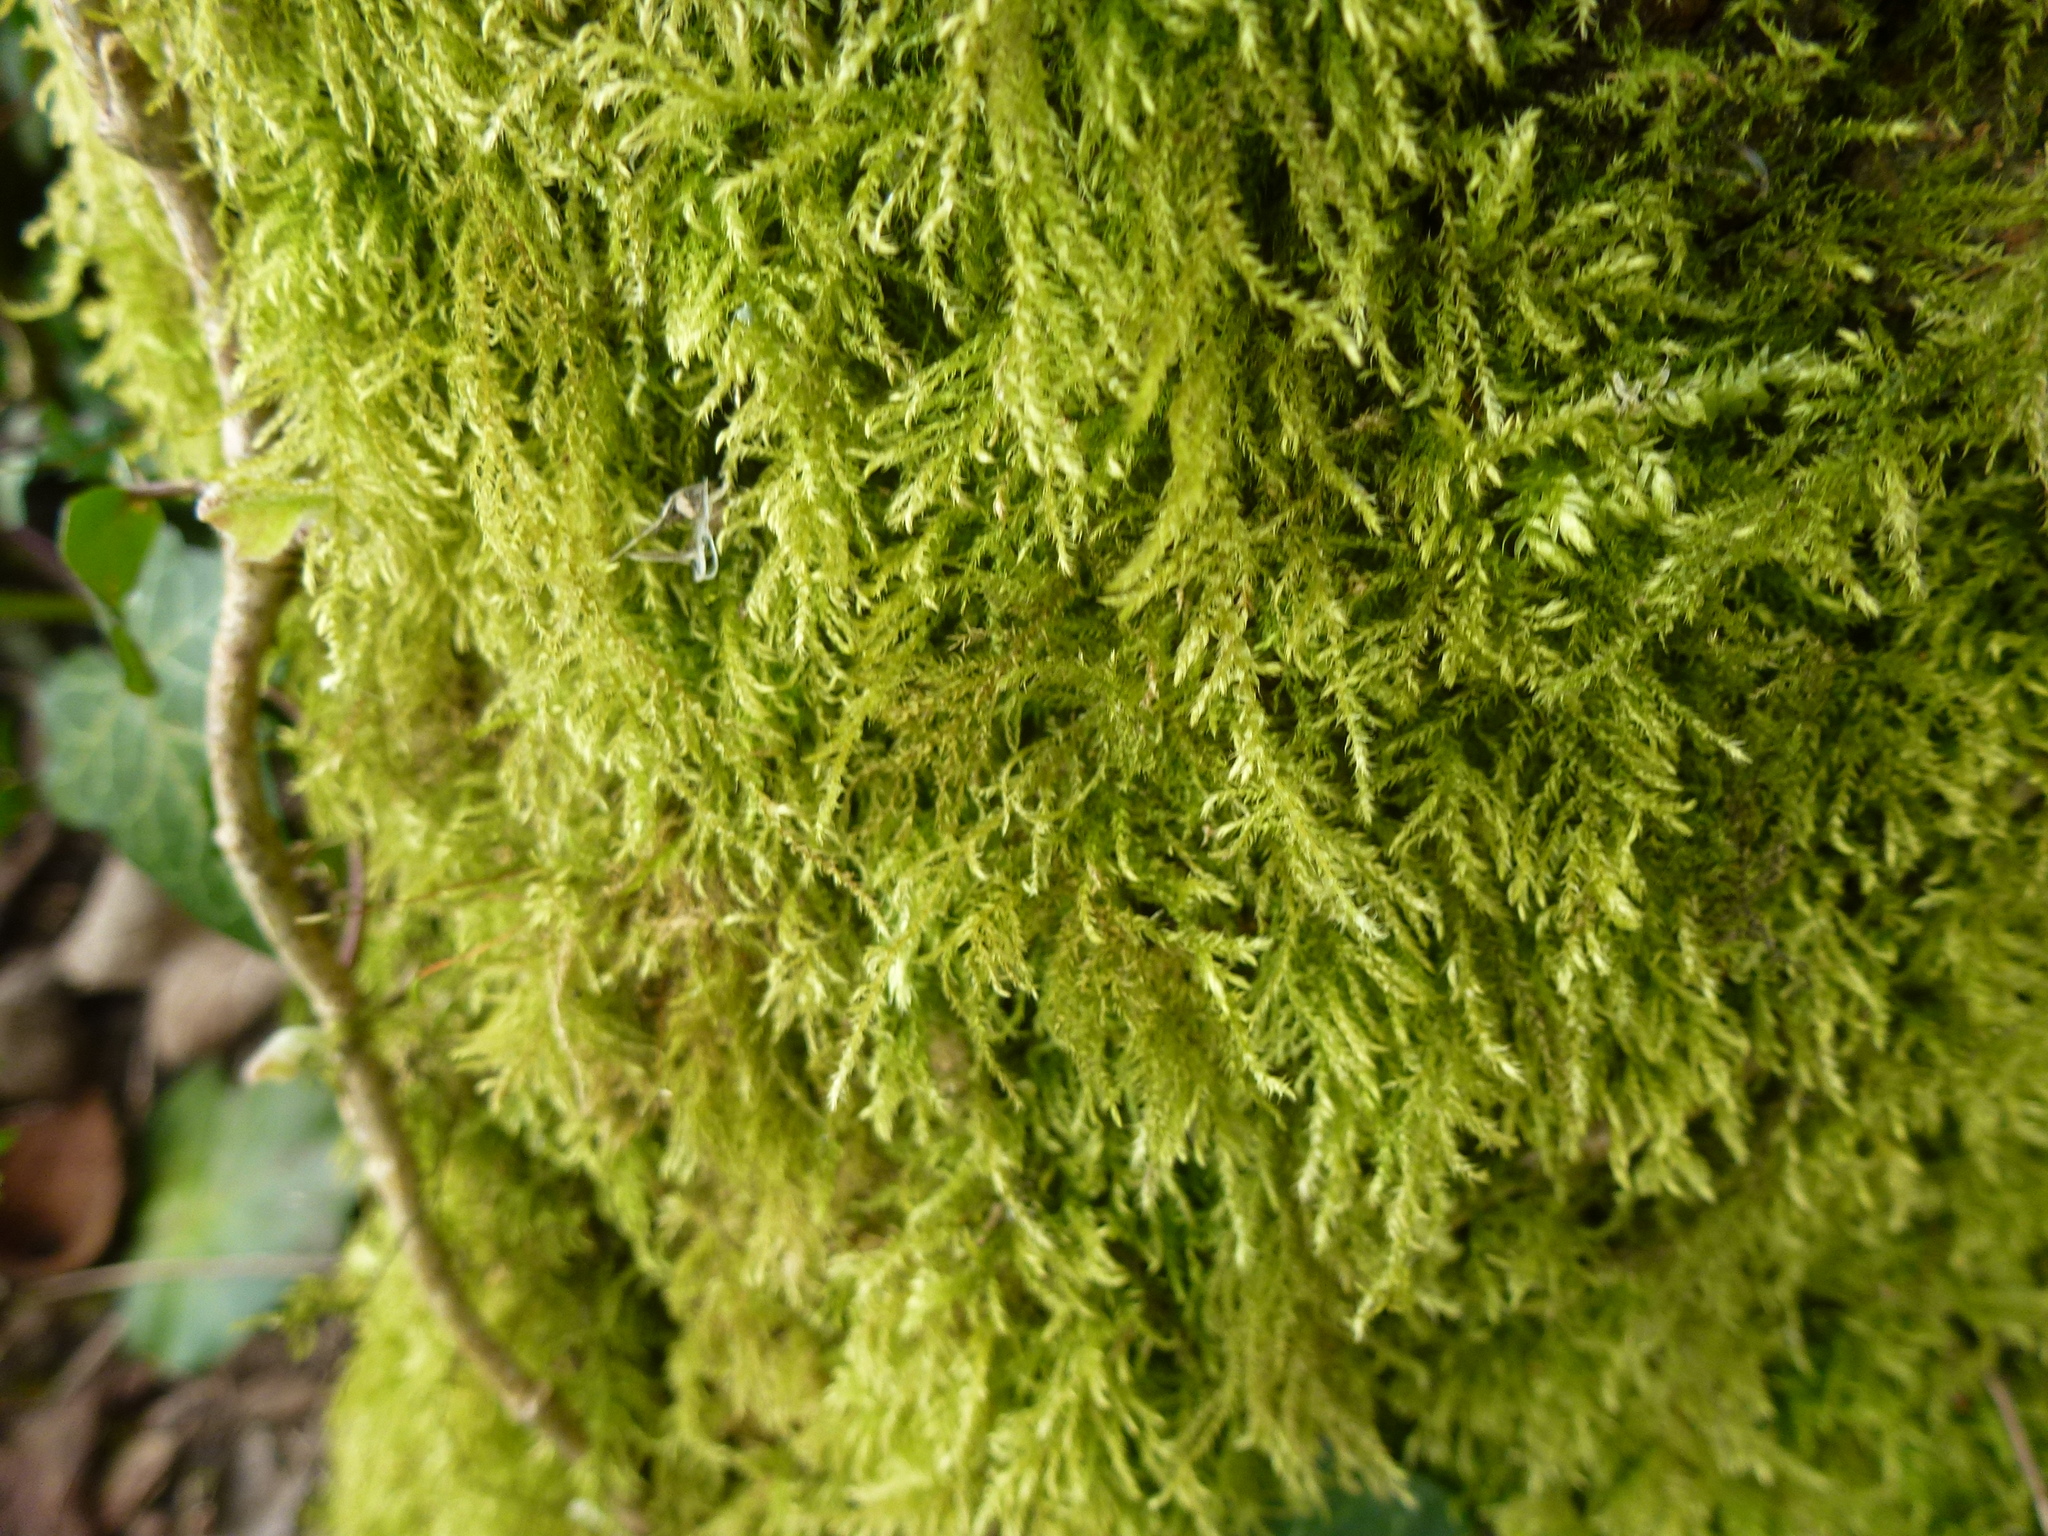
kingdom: Plantae
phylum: Bryophyta
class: Bryopsida
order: Hypnales
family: Brachytheciaceae
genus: Kindbergia
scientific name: Kindbergia praelonga
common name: Slender beaked moss
